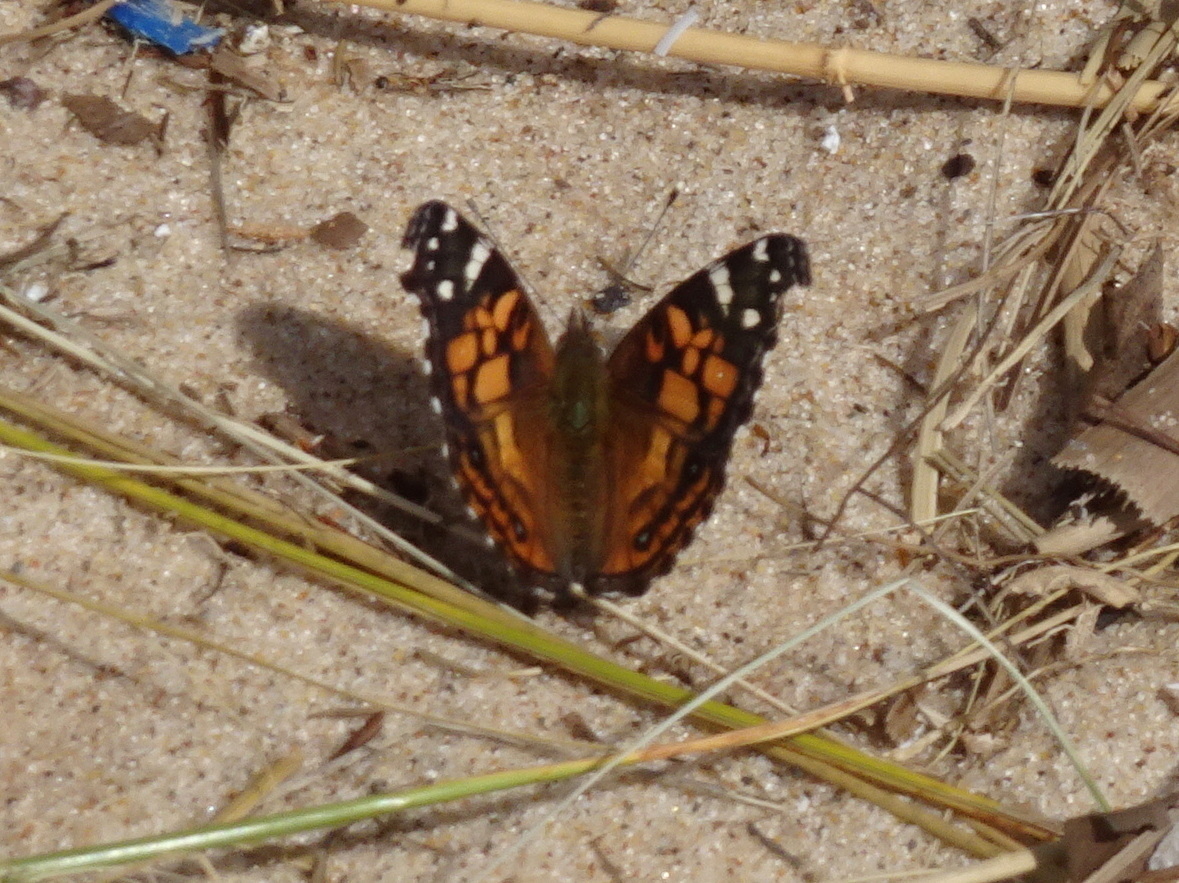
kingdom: Animalia
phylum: Arthropoda
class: Insecta
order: Lepidoptera
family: Nymphalidae
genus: Vanessa
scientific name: Vanessa virginiensis
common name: American lady
